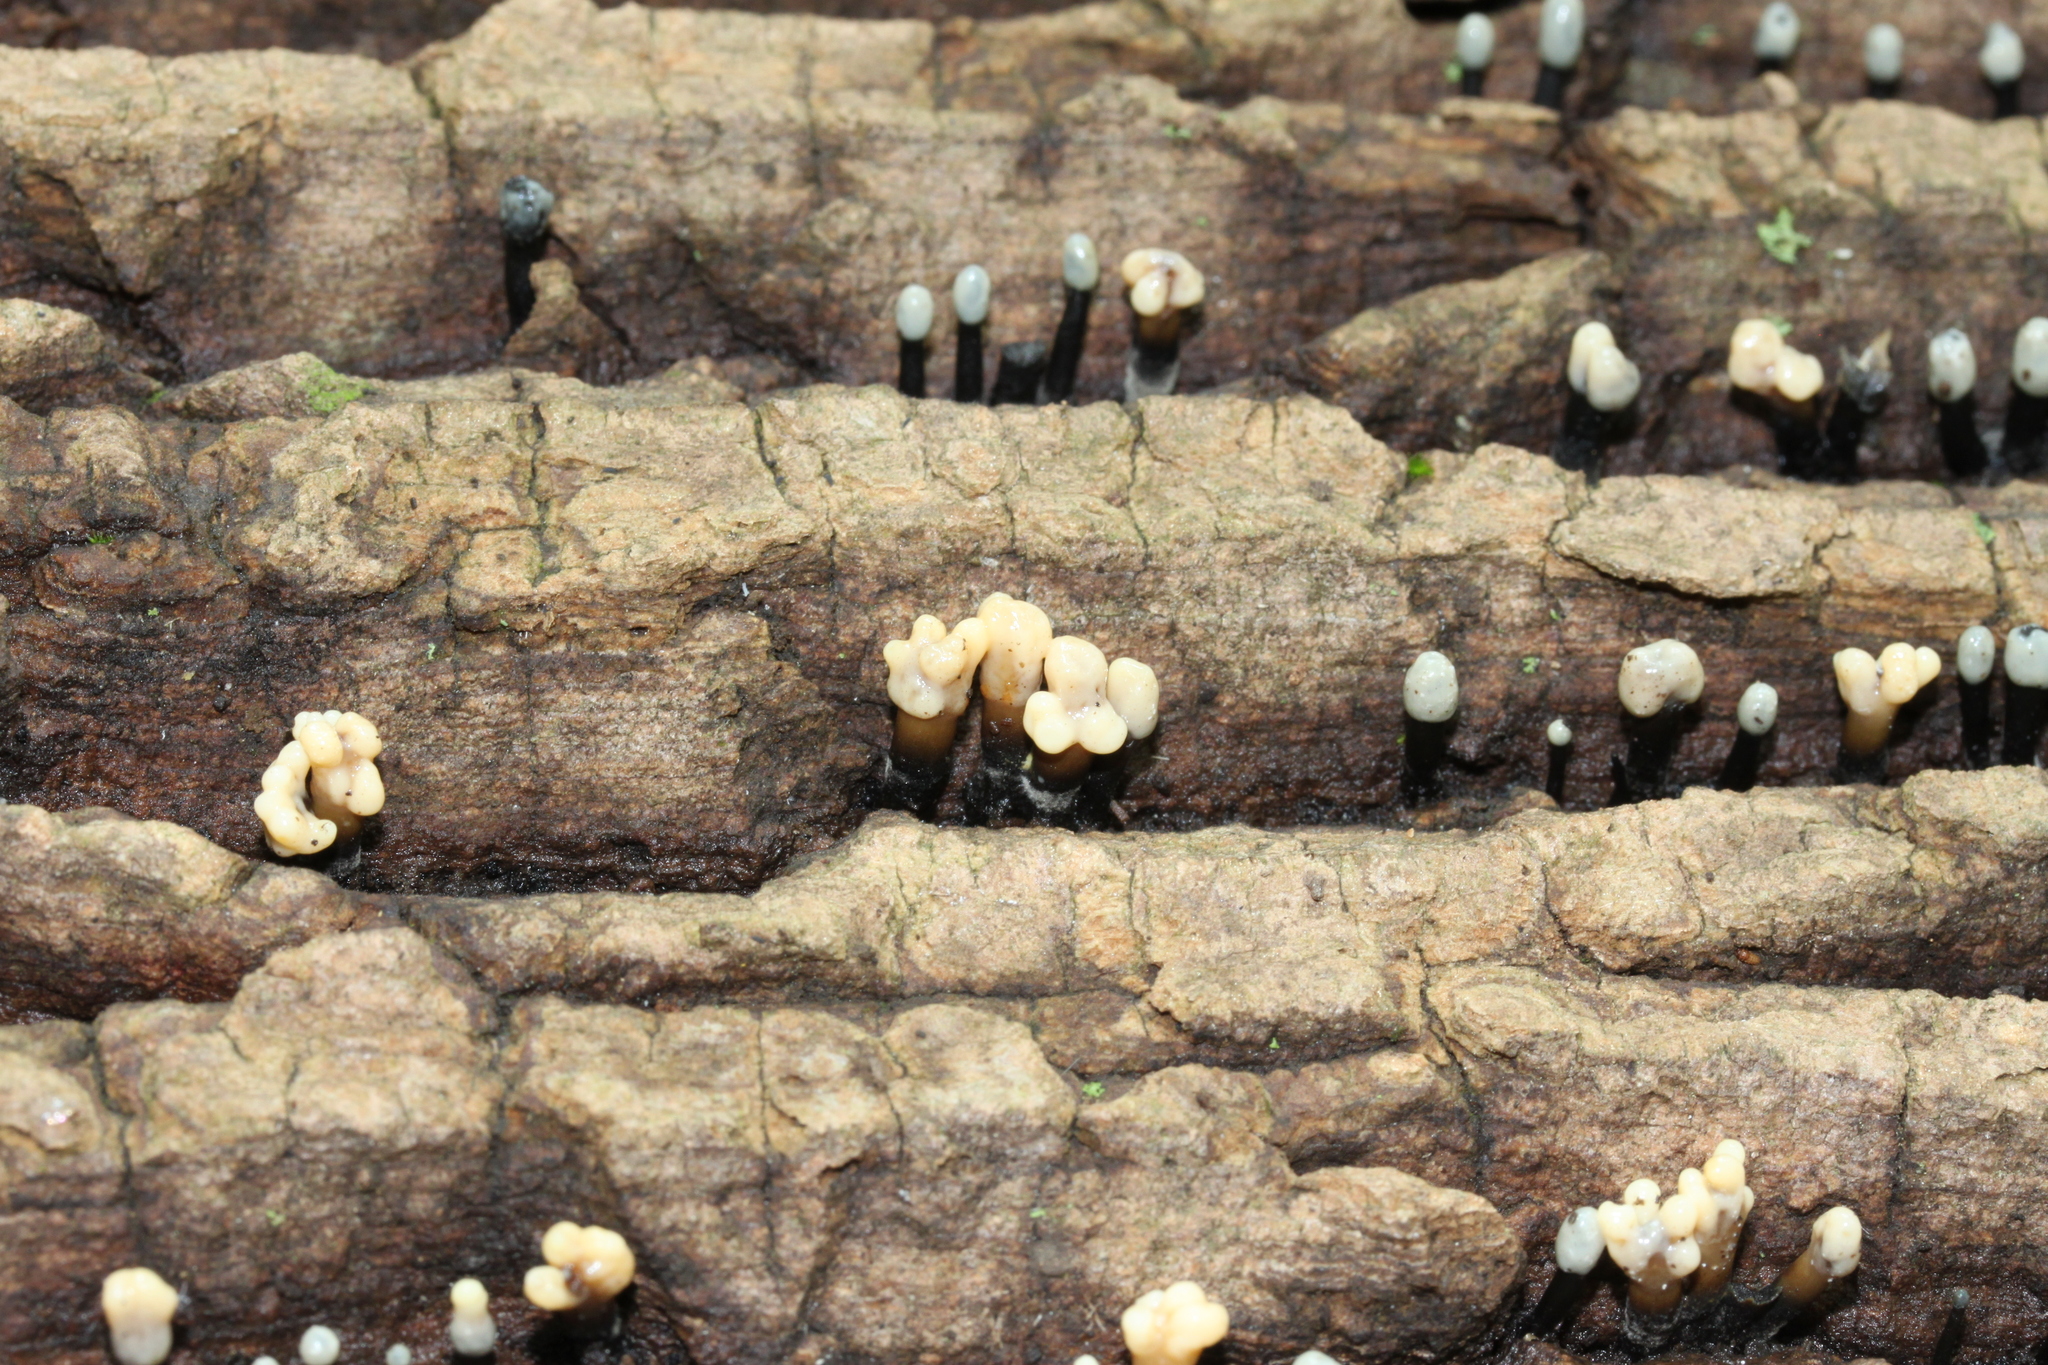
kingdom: Fungi
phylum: Ascomycota
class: Leotiomycetes
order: Helotiales
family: Bulgariaceae
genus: Holwaya
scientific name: Holwaya mucida
